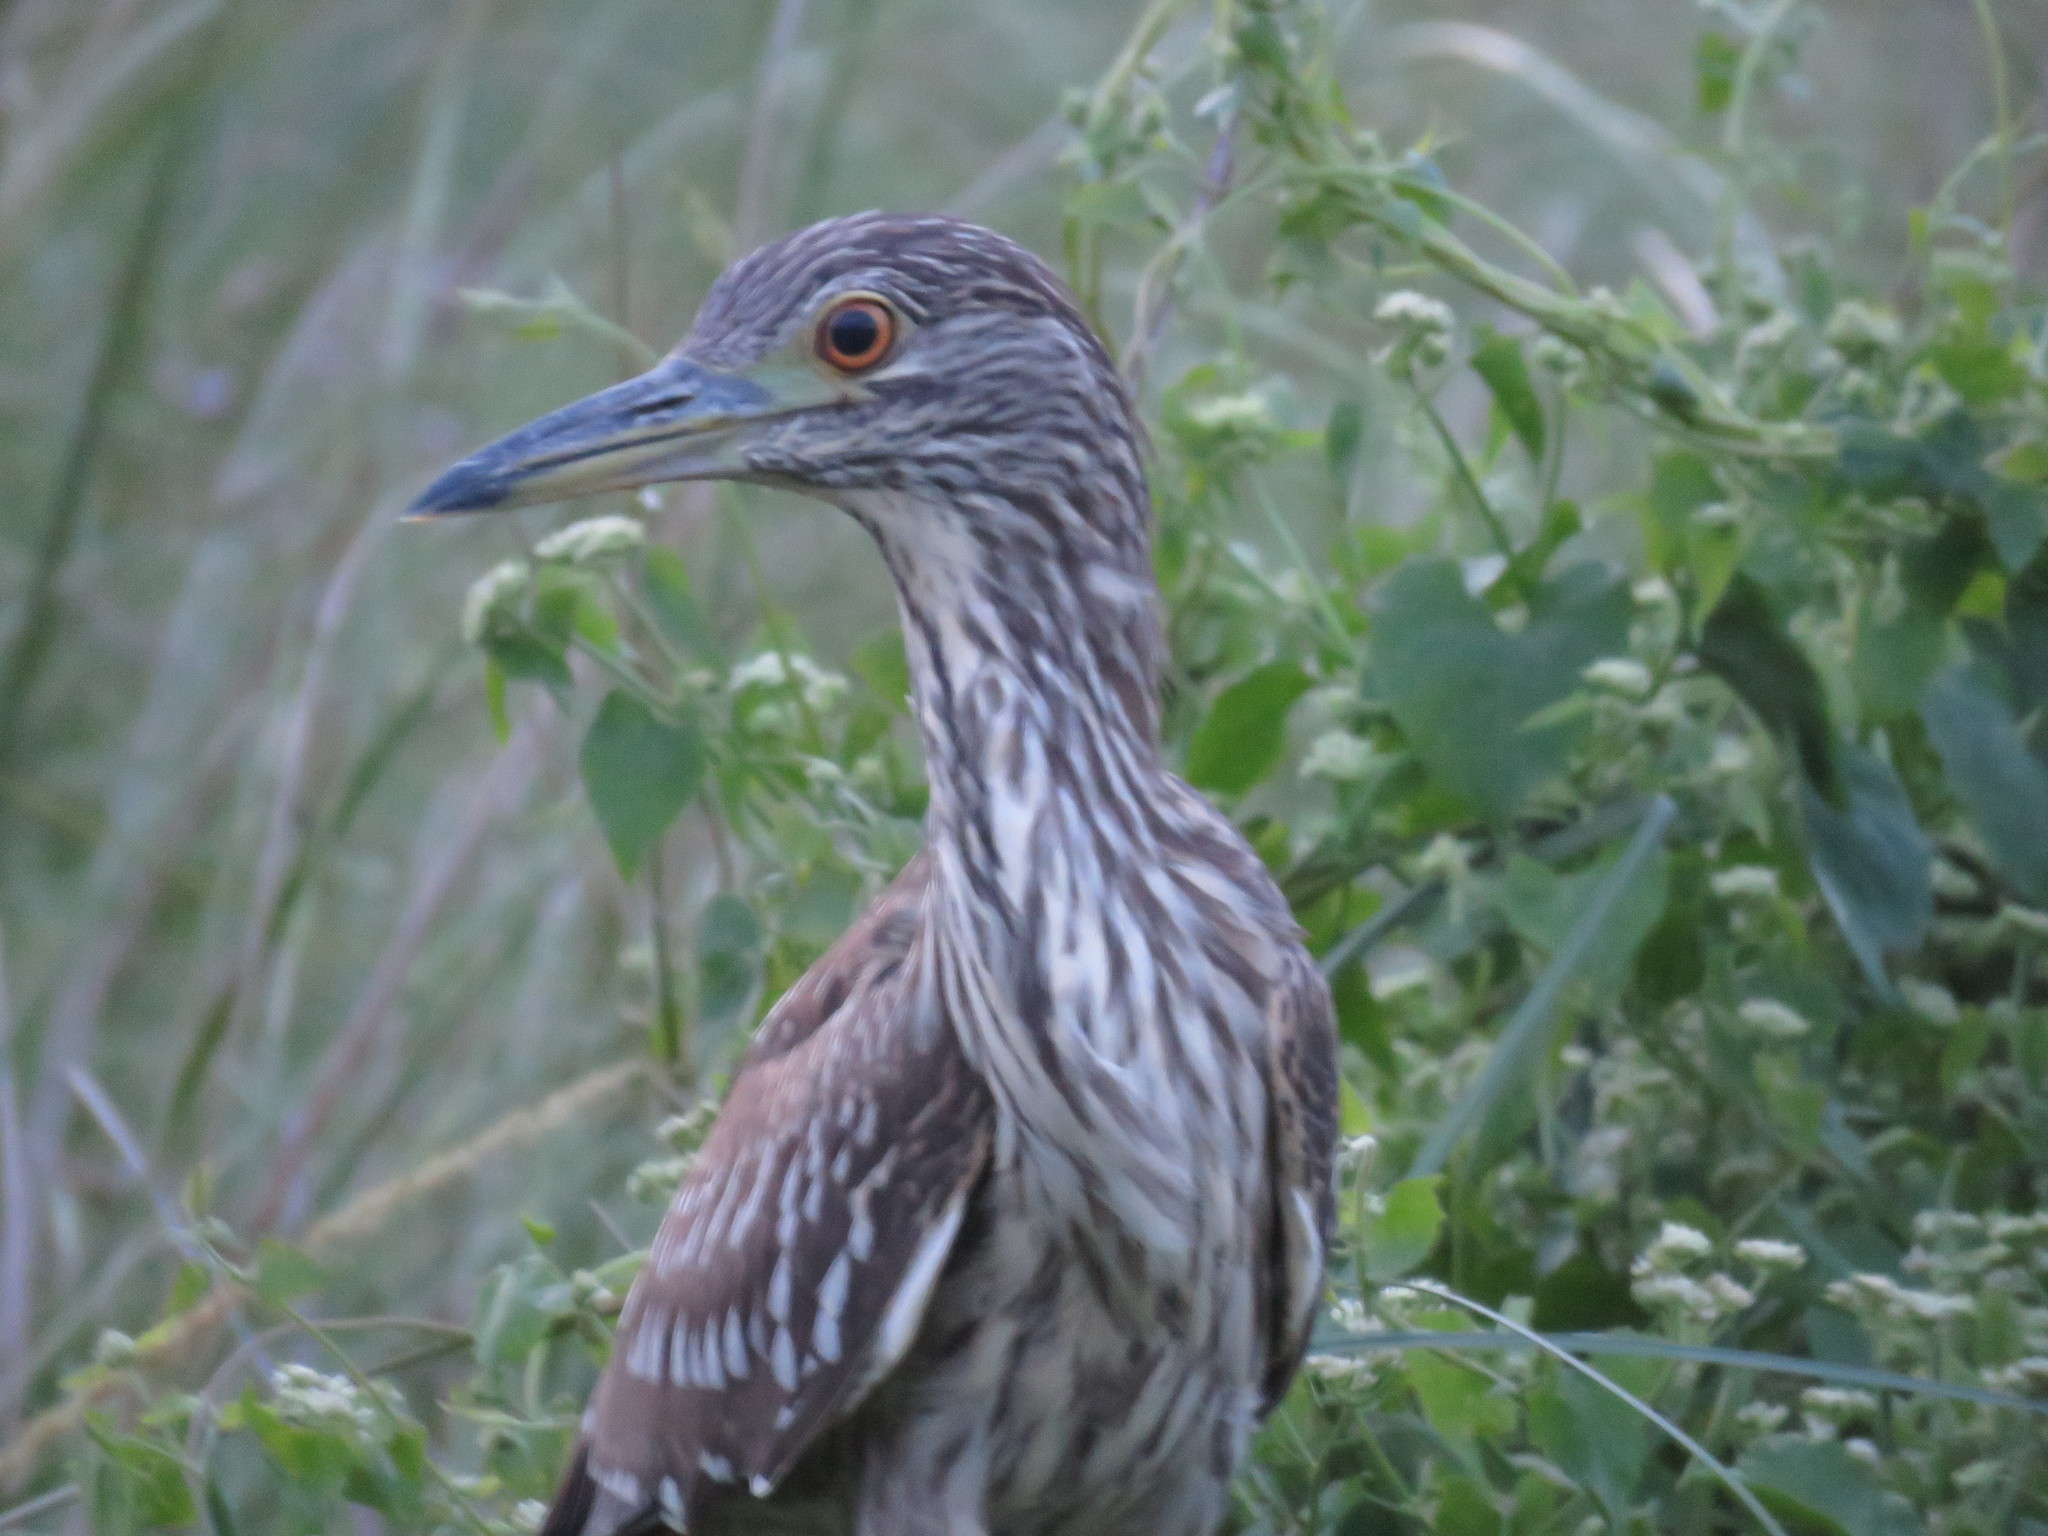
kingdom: Animalia
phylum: Chordata
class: Aves
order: Pelecaniformes
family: Ardeidae
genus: Nycticorax
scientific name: Nycticorax nycticorax
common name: Black-crowned night heron
